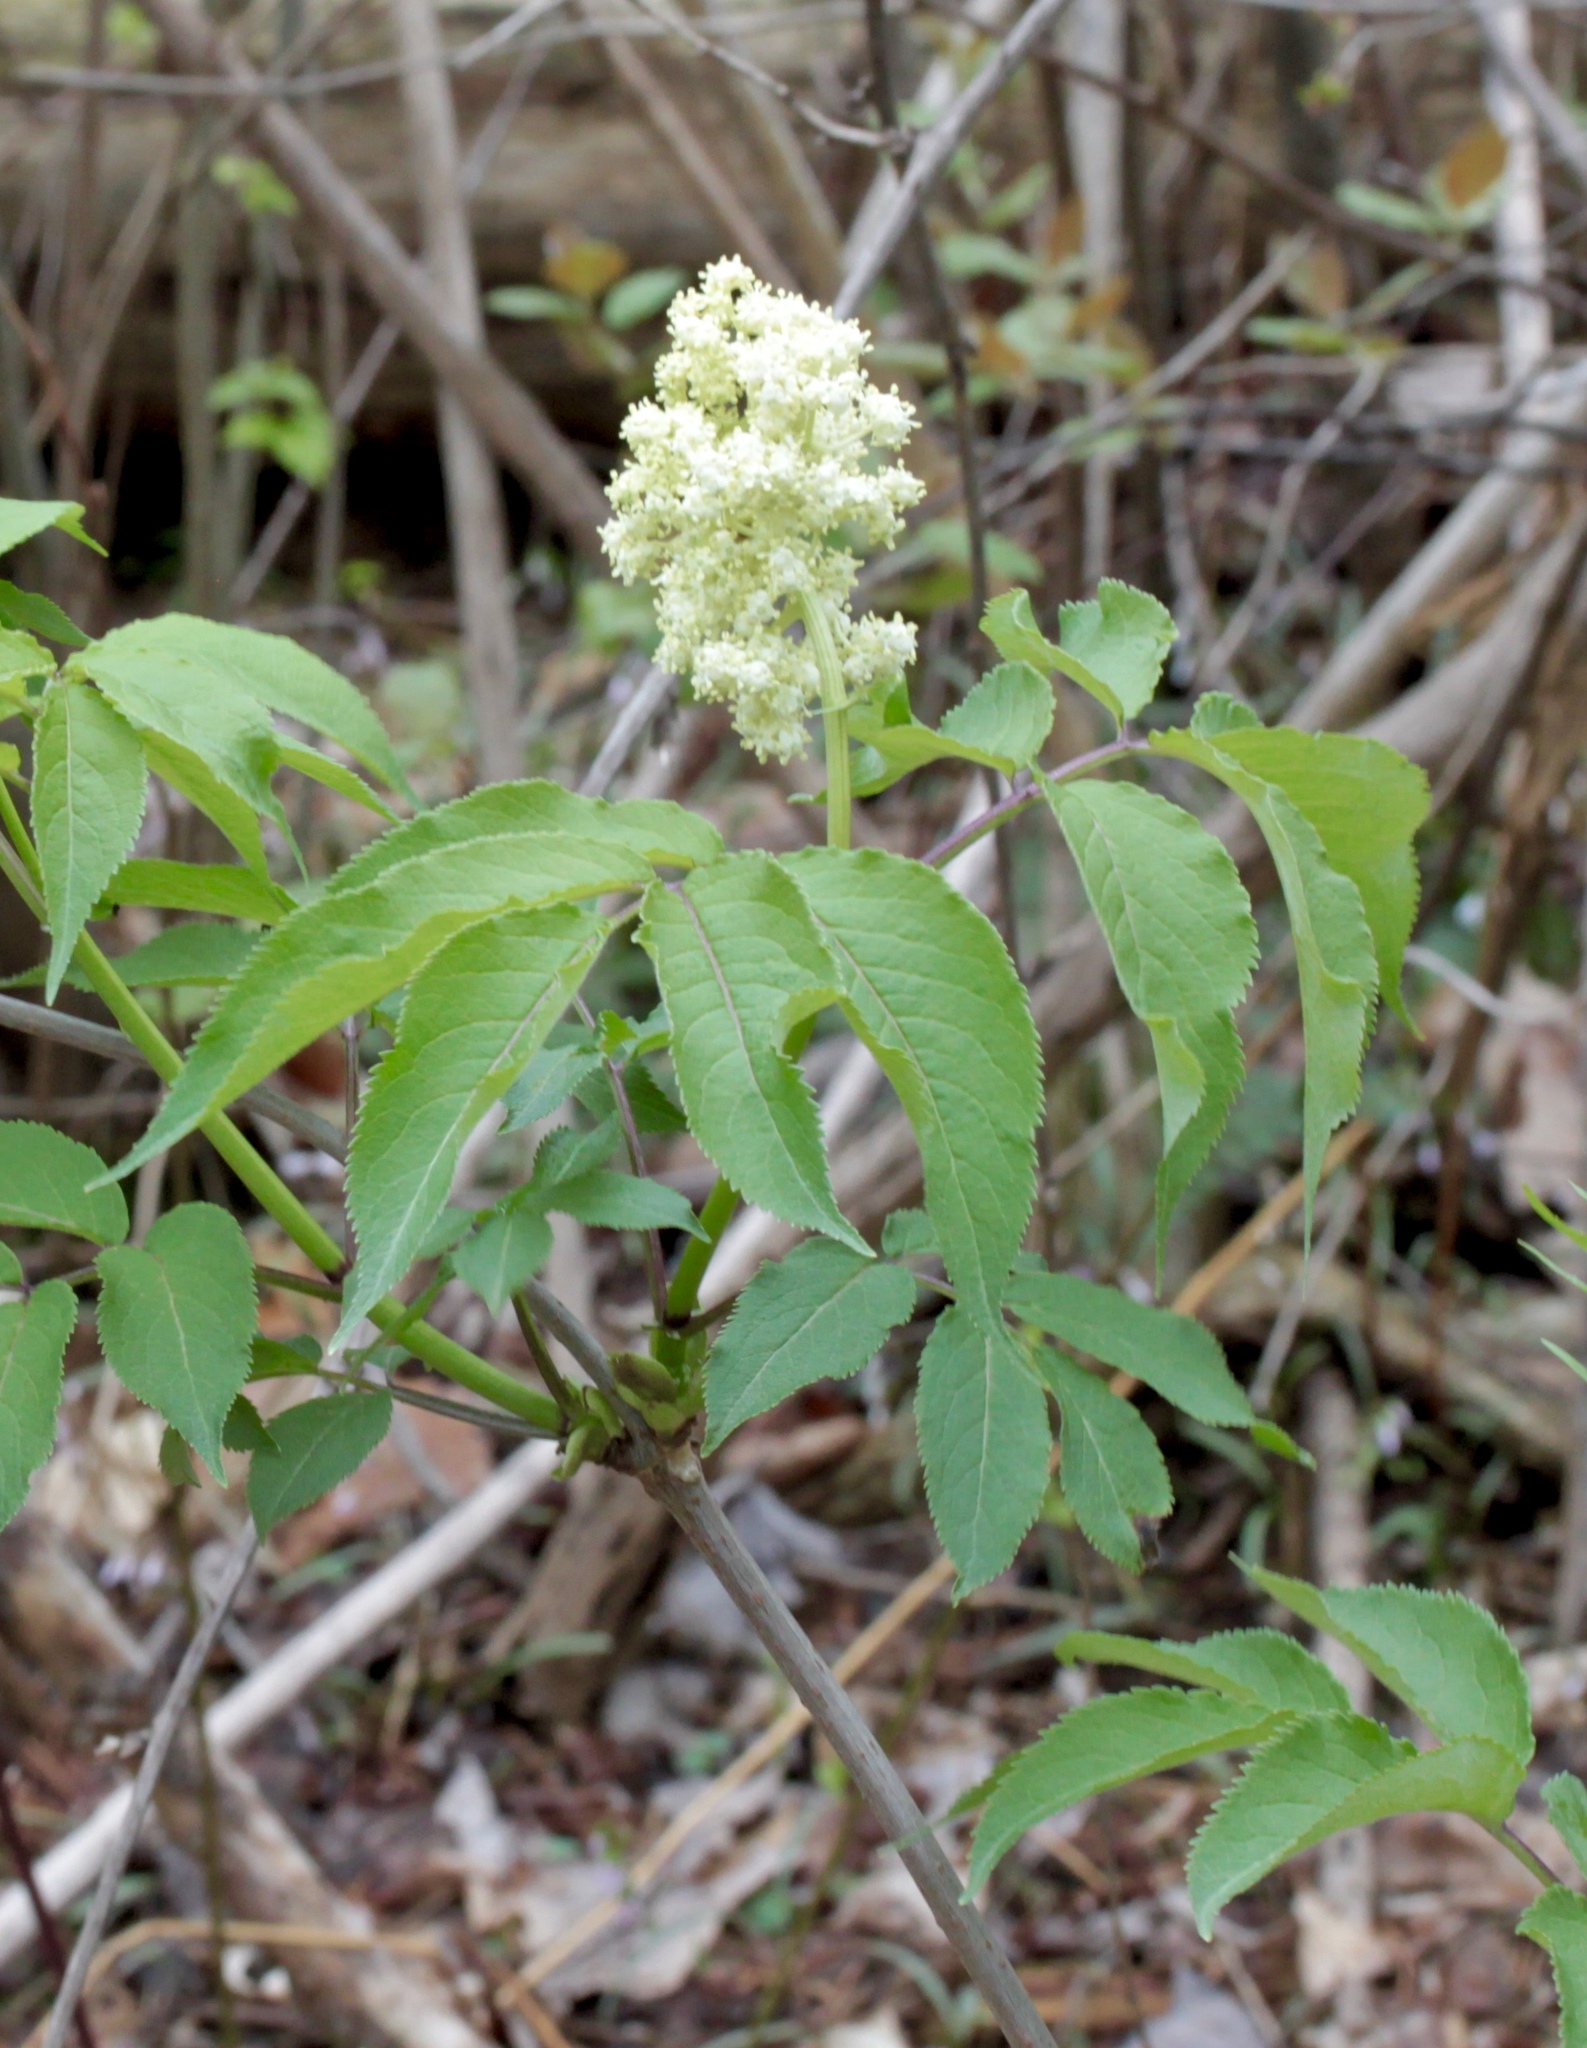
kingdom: Plantae
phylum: Tracheophyta
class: Magnoliopsida
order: Dipsacales
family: Viburnaceae
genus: Sambucus
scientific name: Sambucus racemosa
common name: Red-berried elder
